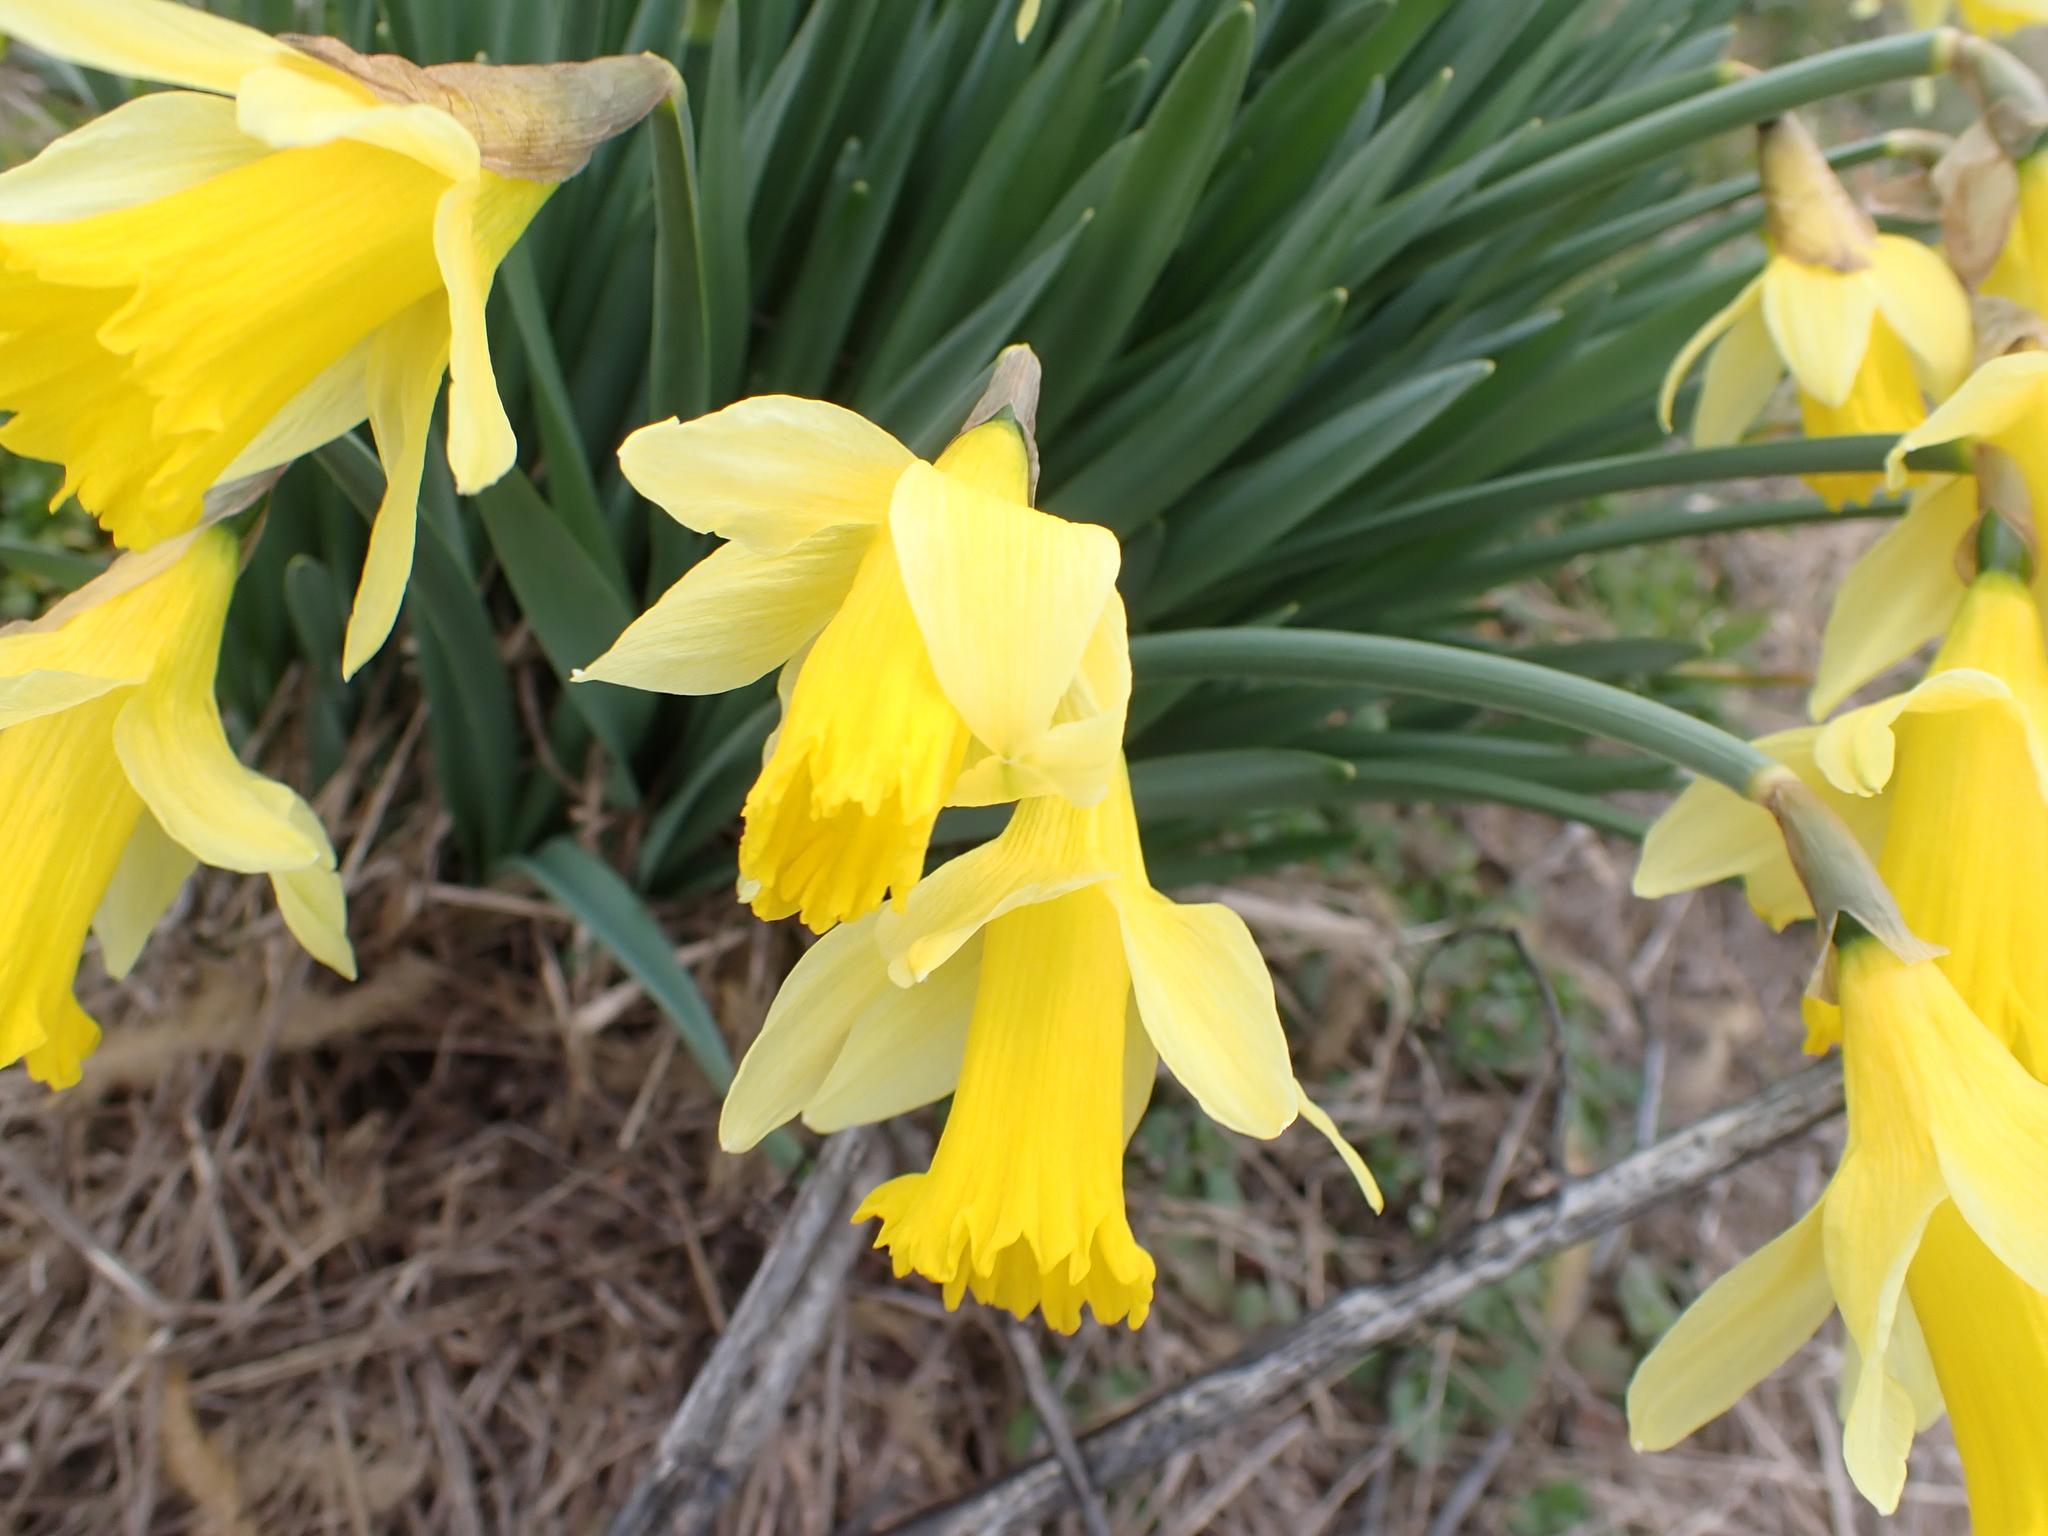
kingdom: Plantae
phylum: Tracheophyta
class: Liliopsida
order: Asparagales
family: Amaryllidaceae
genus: Narcissus
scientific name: Narcissus pseudonarcissus
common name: Daffodil
